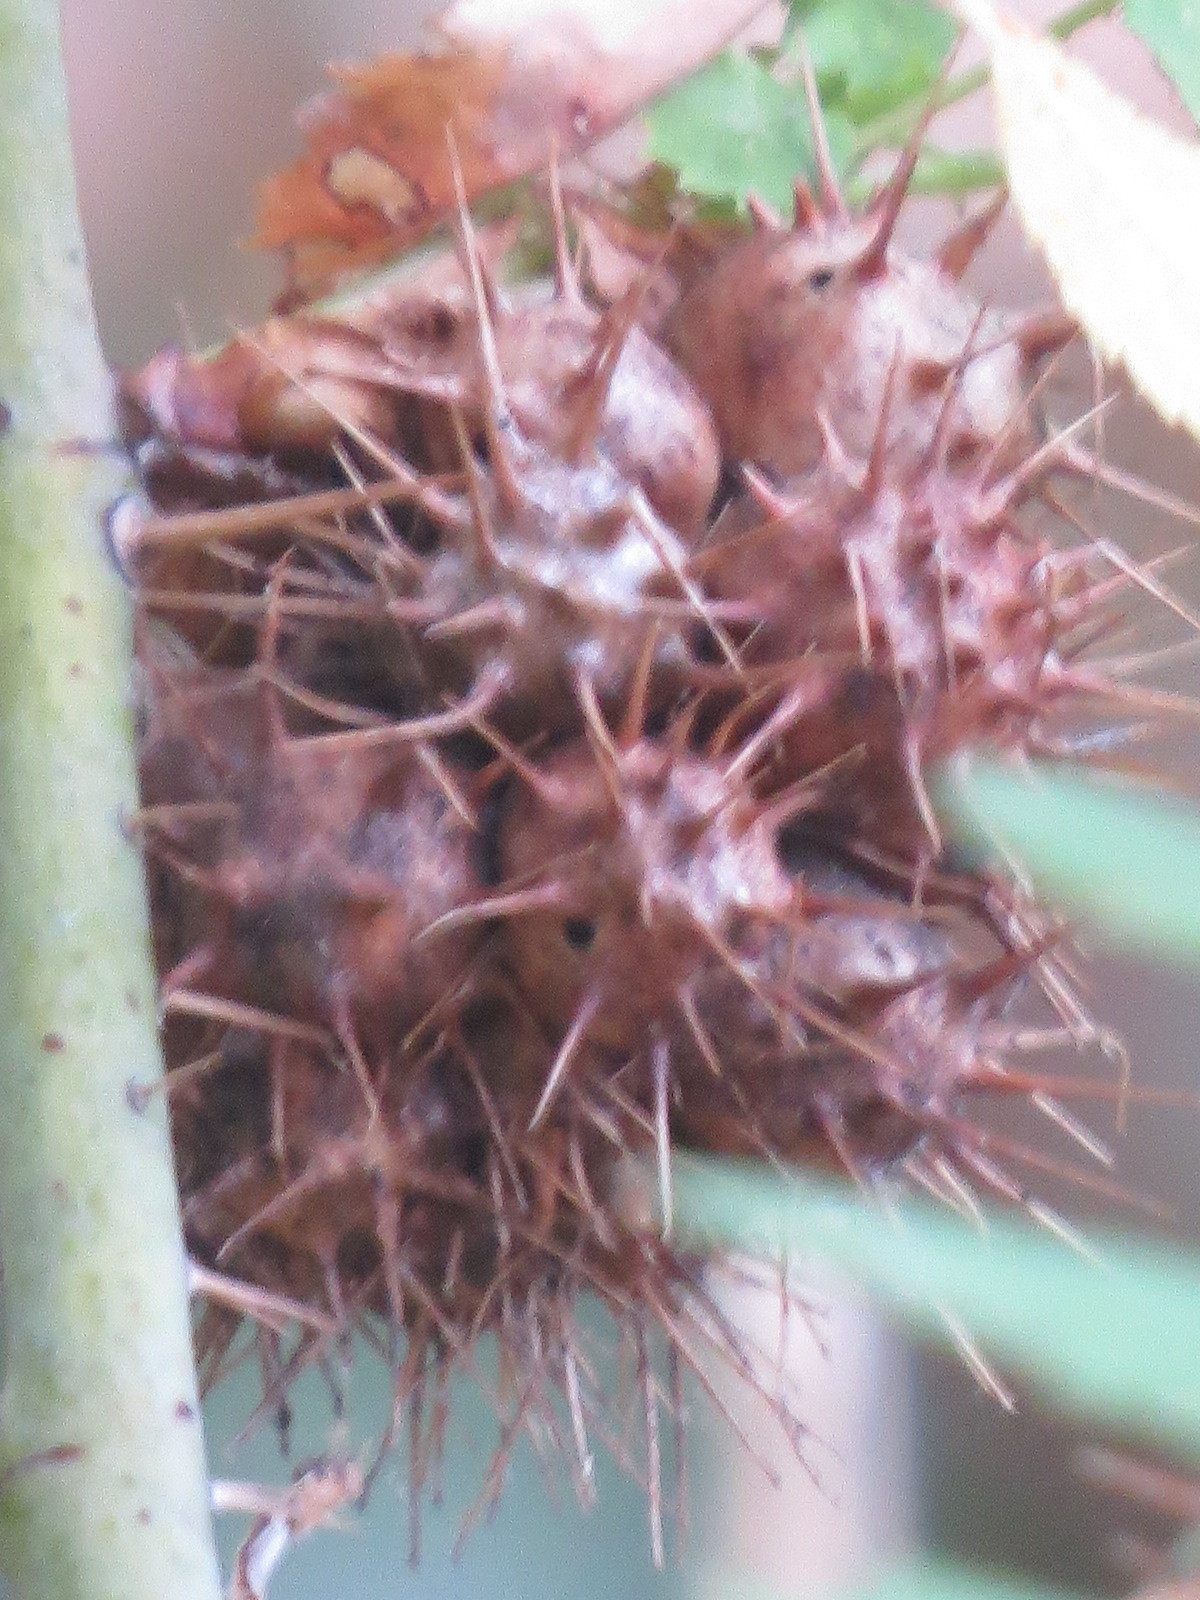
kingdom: Animalia
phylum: Arthropoda
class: Insecta
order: Hymenoptera
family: Cynipidae
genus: Diplolepis
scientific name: Diplolepis bicolor
